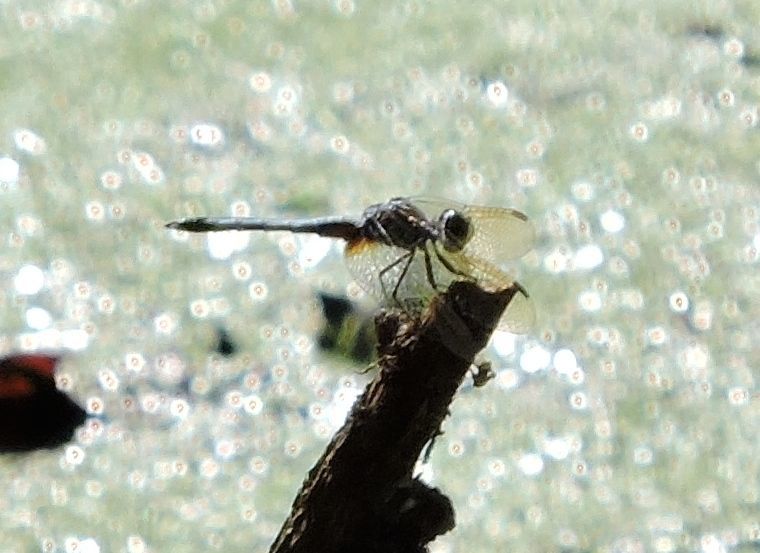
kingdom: Animalia
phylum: Arthropoda
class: Insecta
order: Odonata
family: Libellulidae
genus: Pachydiplax
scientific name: Pachydiplax longipennis
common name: Blue dasher
